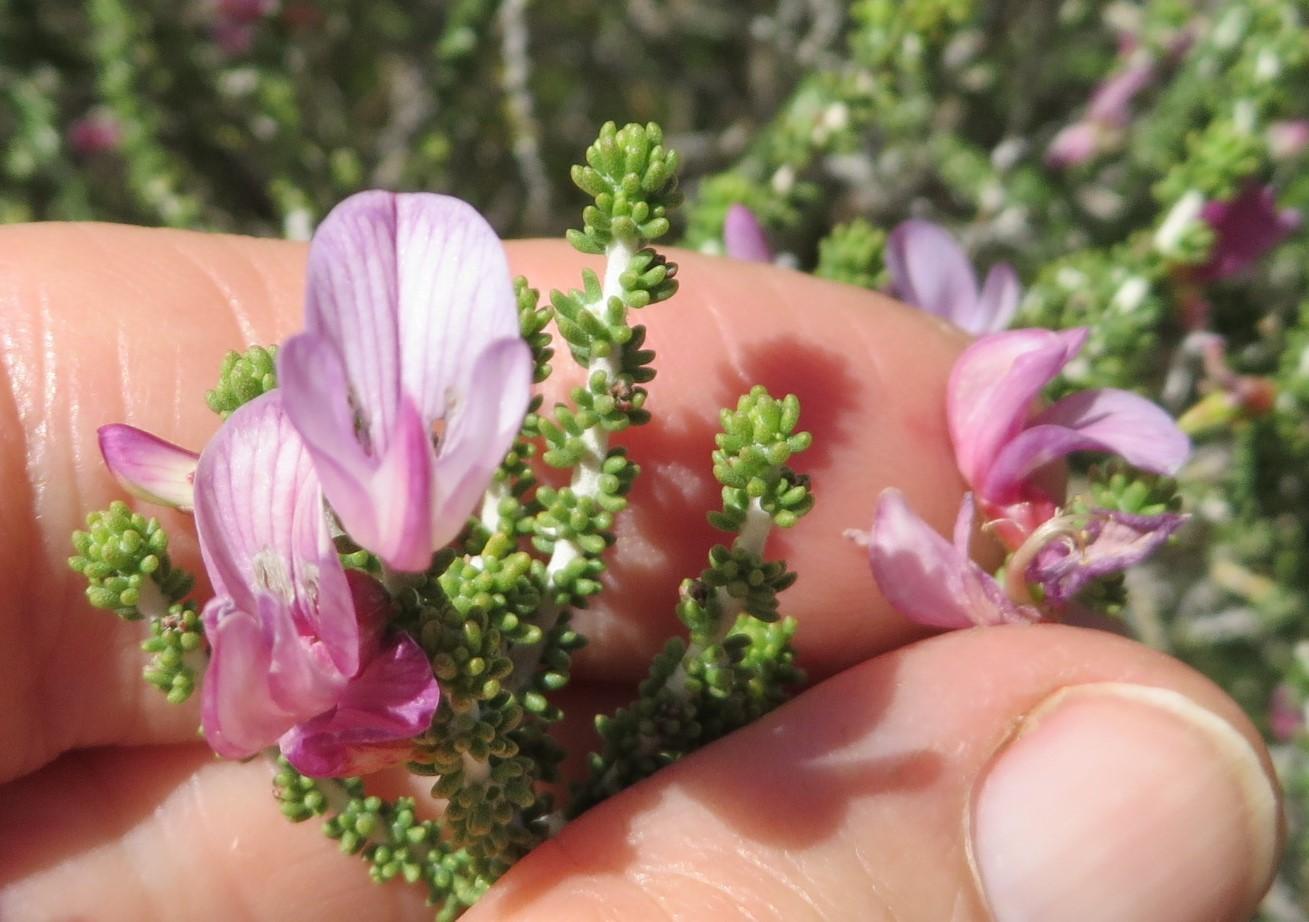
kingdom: Plantae
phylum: Tracheophyta
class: Magnoliopsida
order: Fabales
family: Fabaceae
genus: Aspalathus
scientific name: Aspalathus costulata
